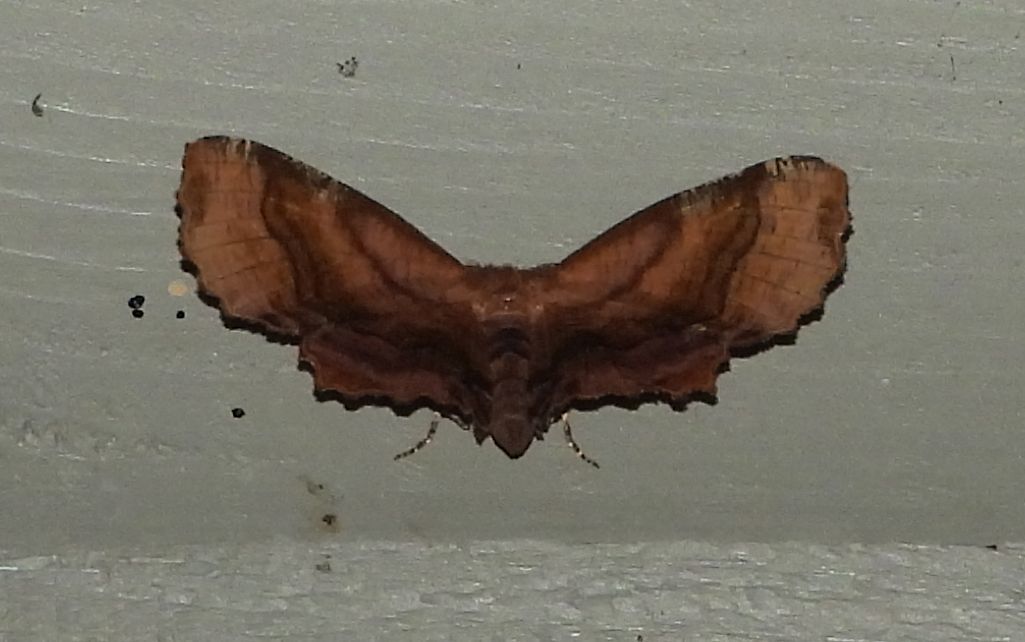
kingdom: Animalia
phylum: Arthropoda
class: Insecta
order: Lepidoptera
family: Geometridae
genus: Cepphis
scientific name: Cepphis armataria
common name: Scallop moth
